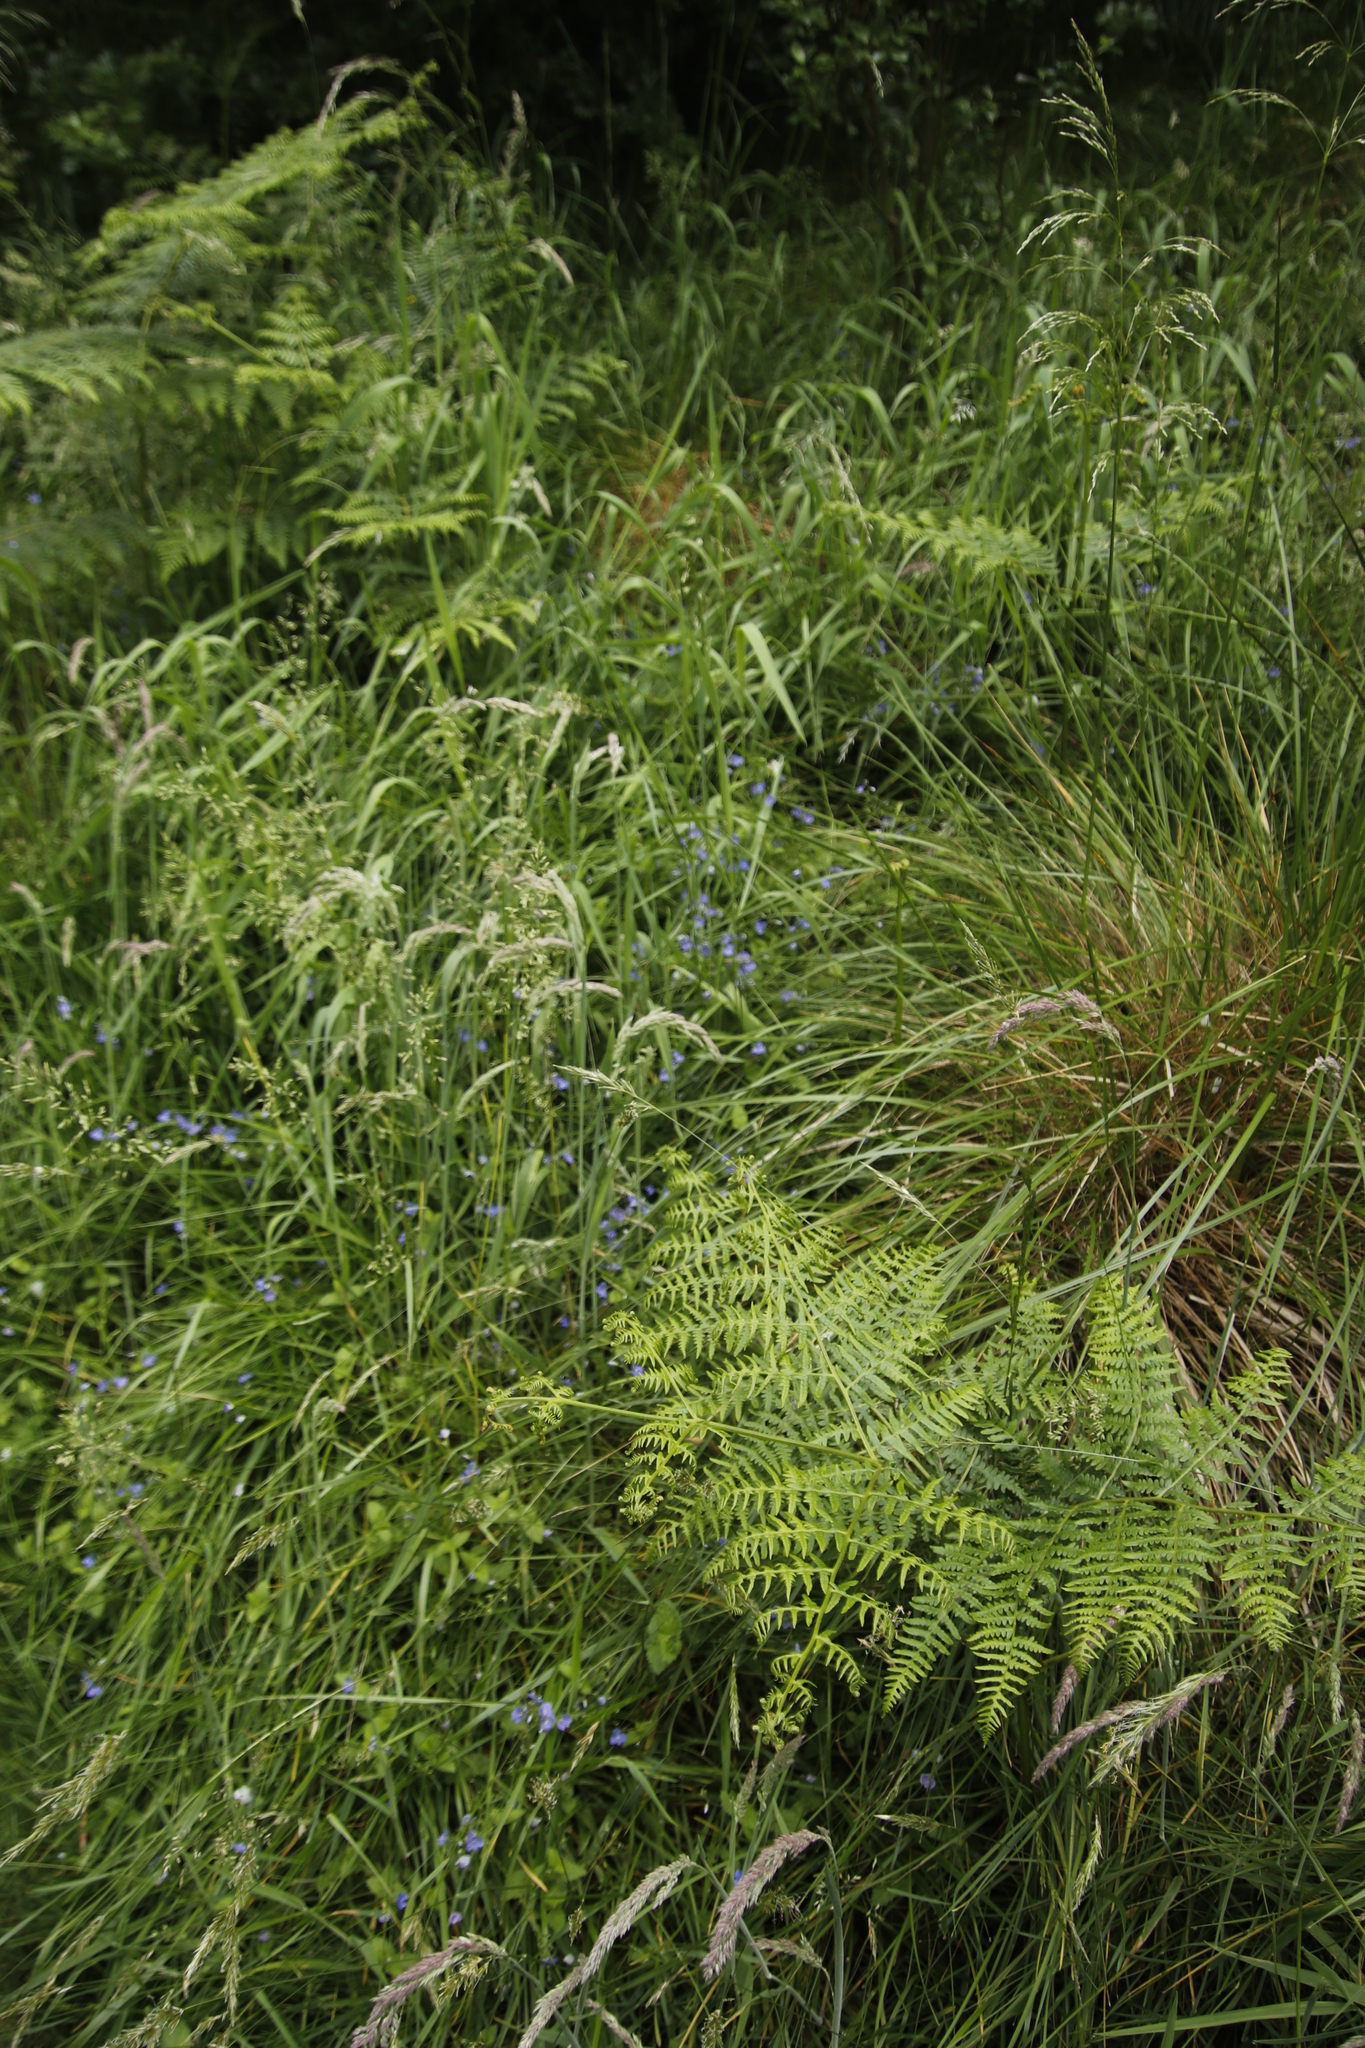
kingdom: Plantae
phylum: Tracheophyta
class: Magnoliopsida
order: Lamiales
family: Plantaginaceae
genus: Veronica
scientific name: Veronica chamaedrys
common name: Germander speedwell
